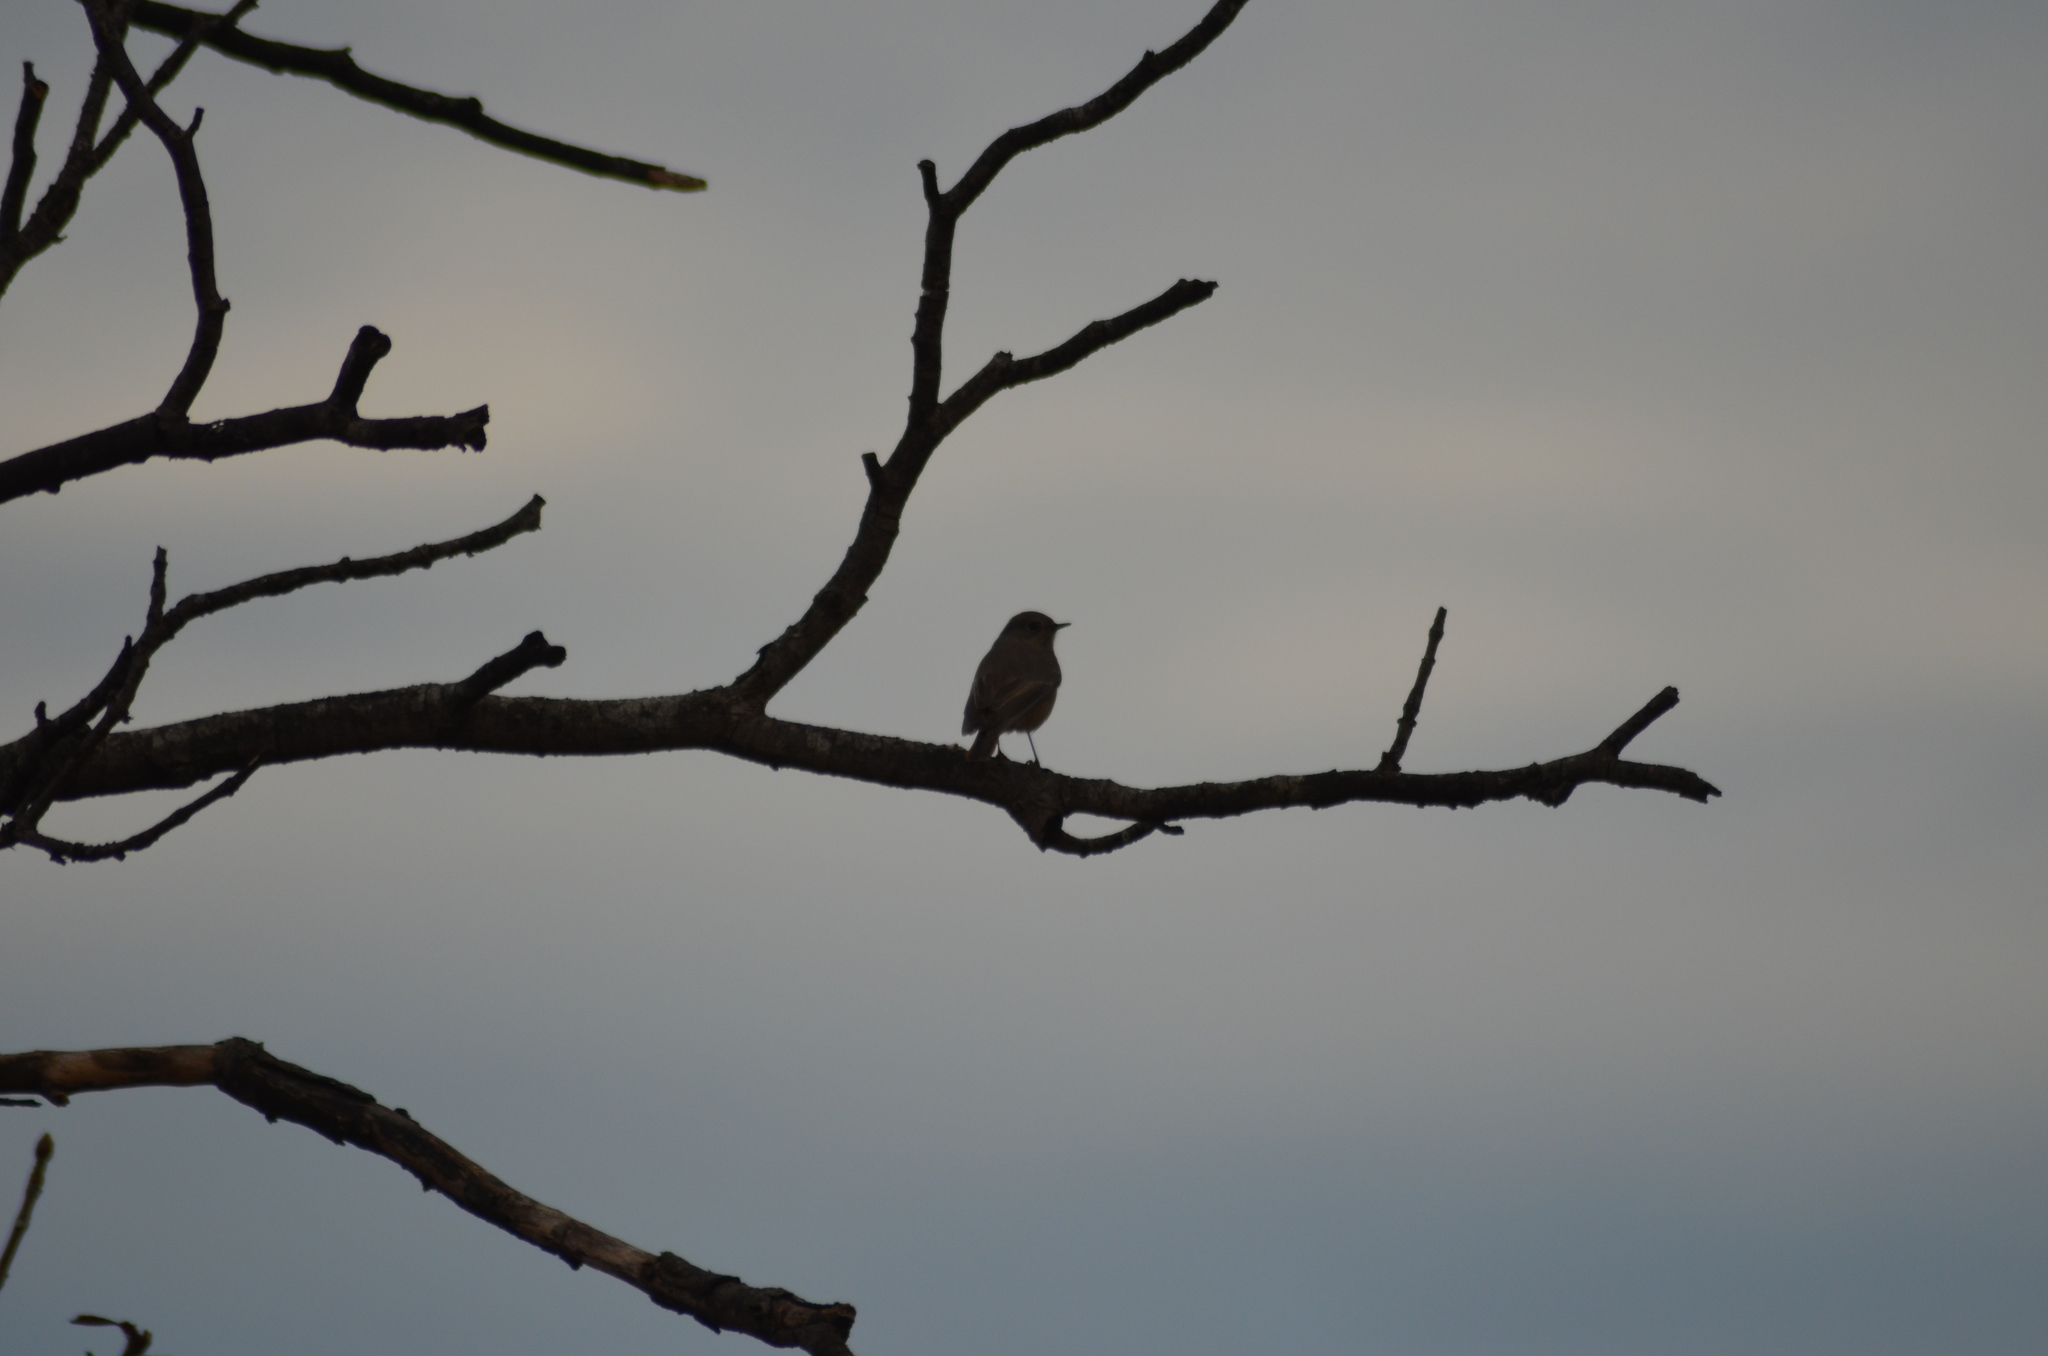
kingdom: Animalia
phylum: Chordata
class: Aves
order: Passeriformes
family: Muscicapidae
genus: Phoenicurus
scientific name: Phoenicurus ochruros
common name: Black redstart
